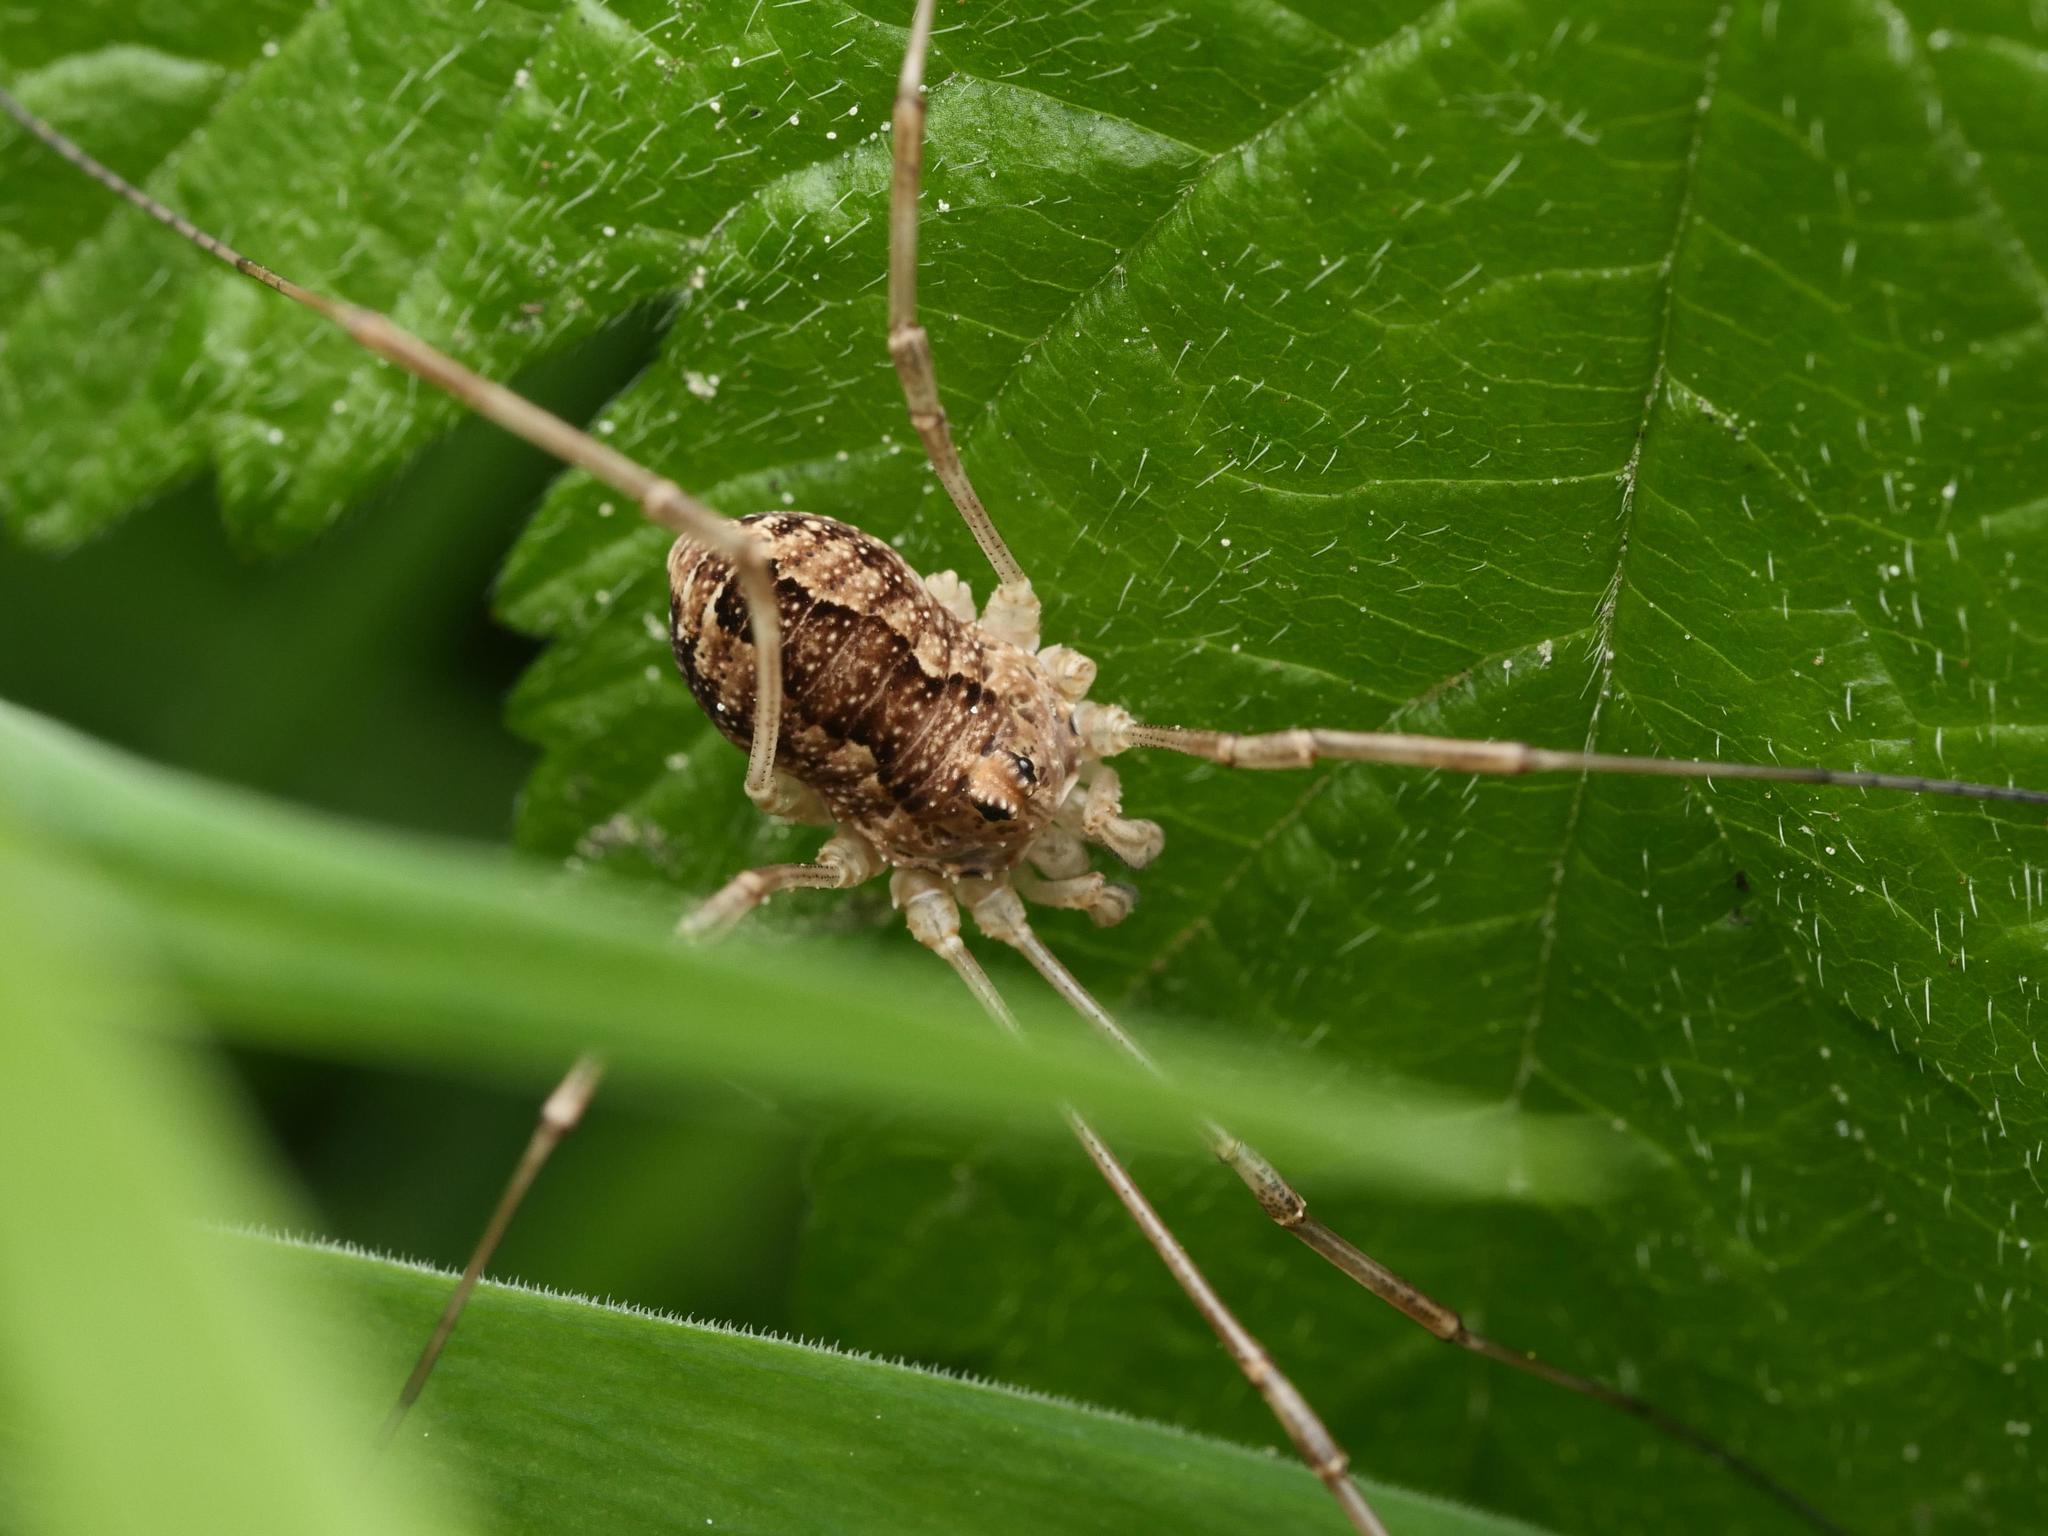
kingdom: Animalia
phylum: Arthropoda
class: Arachnida
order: Opiliones
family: Phalangiidae
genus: Rilaena
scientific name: Rilaena triangularis
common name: Spring harvestman
